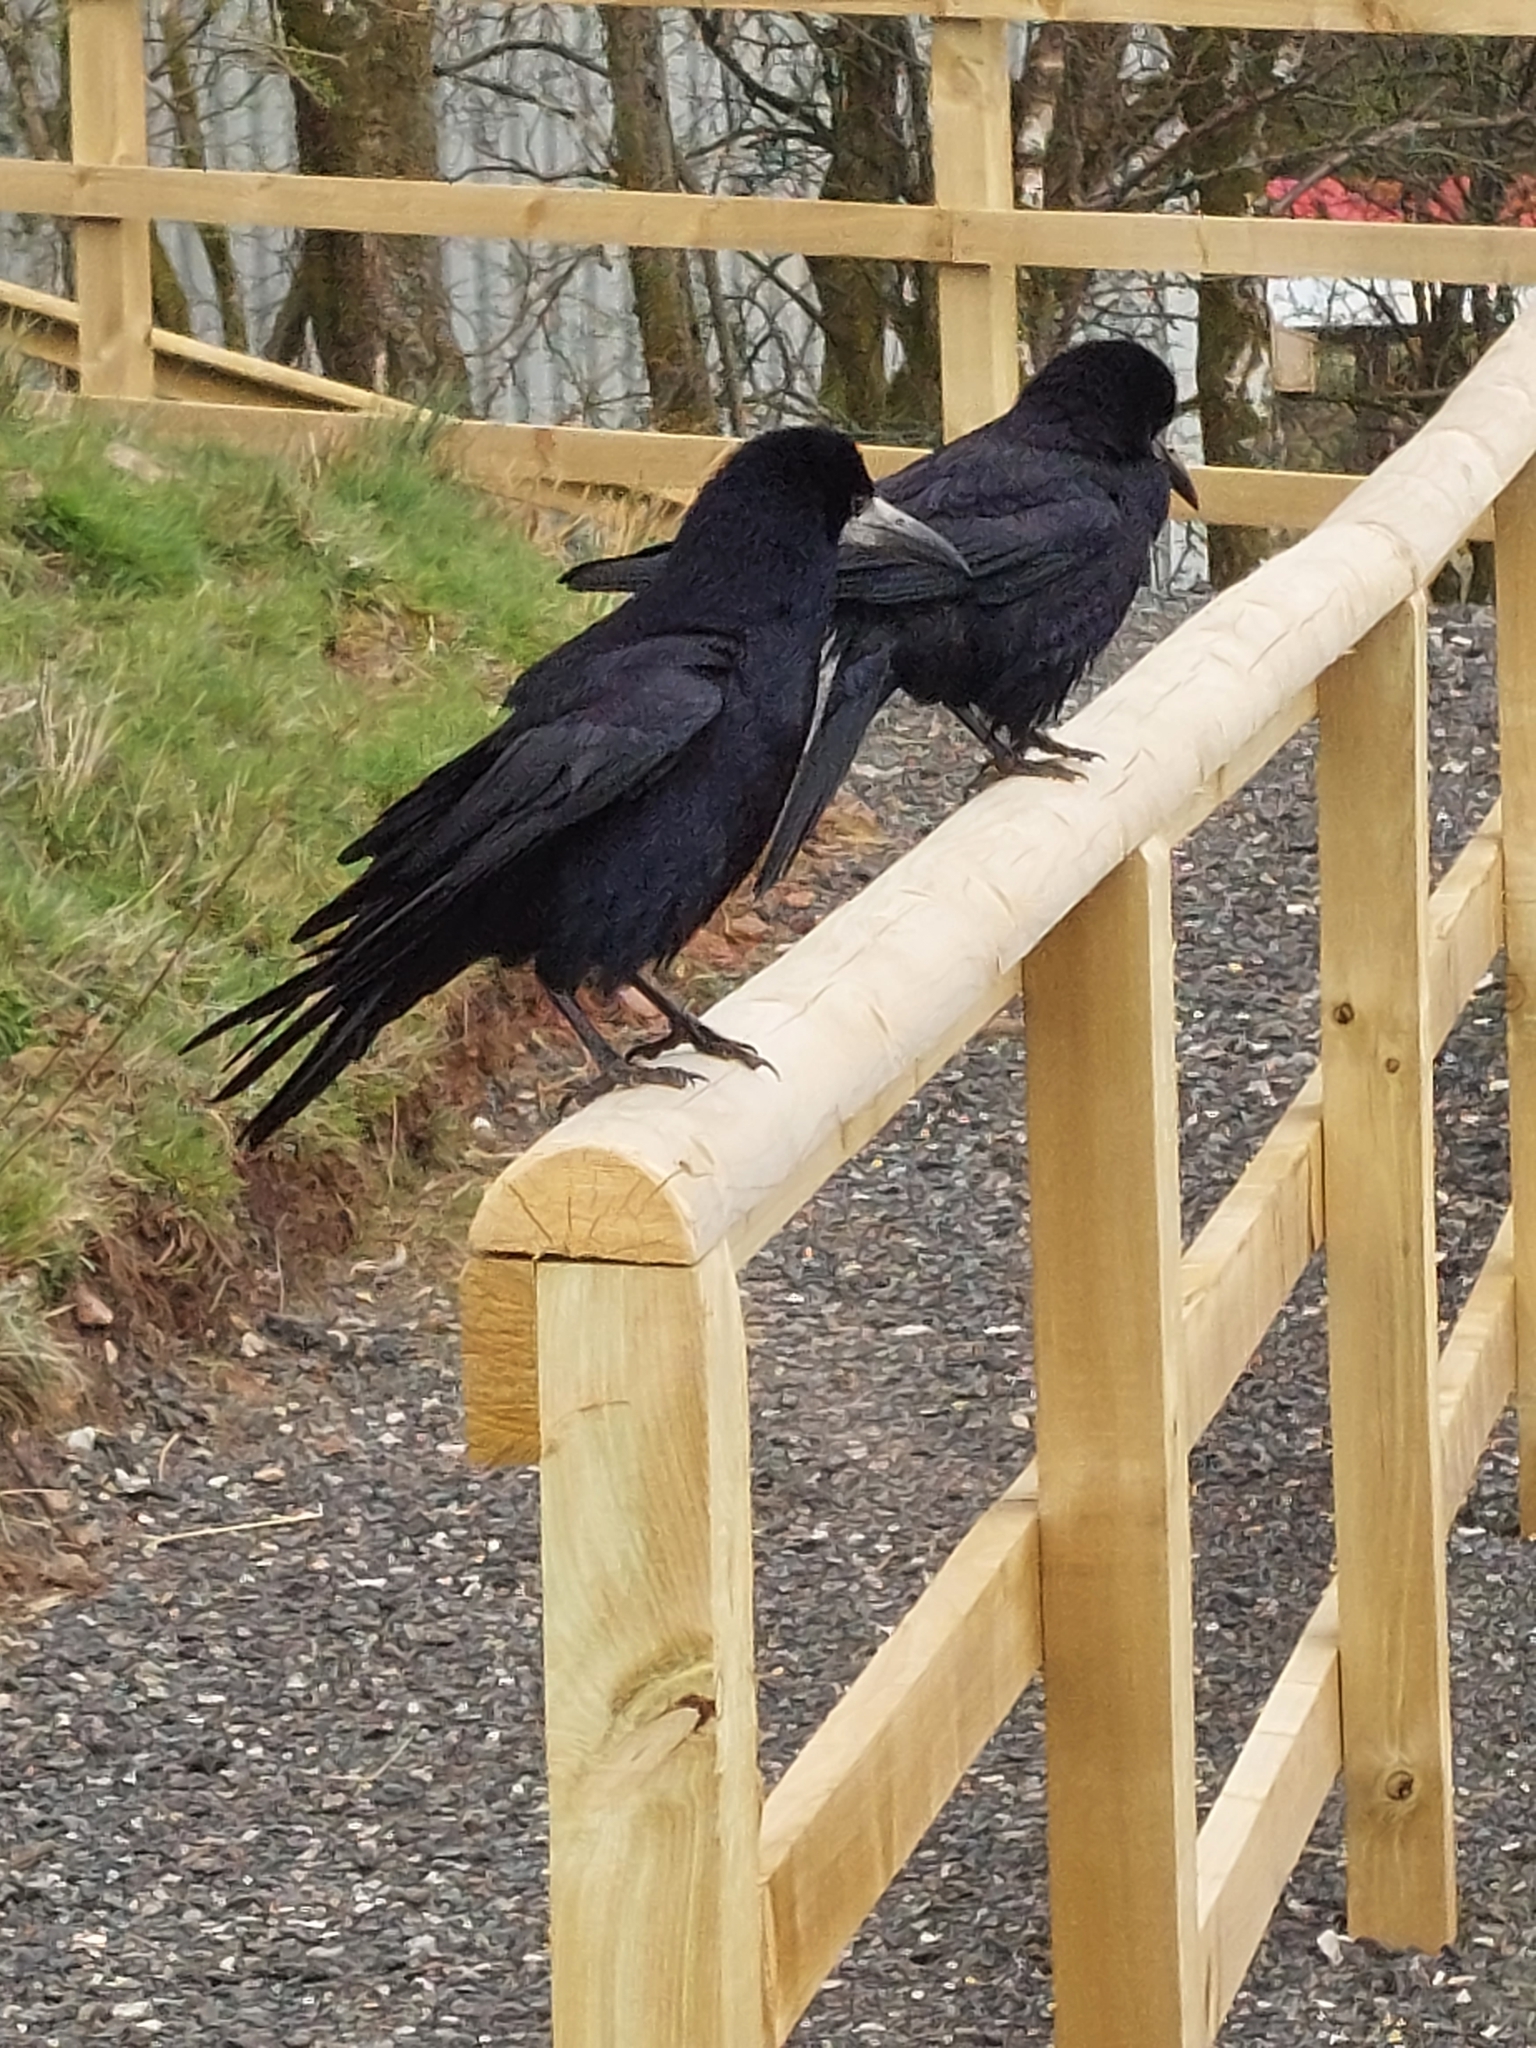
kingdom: Animalia
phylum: Chordata
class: Aves
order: Passeriformes
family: Corvidae
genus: Corvus
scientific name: Corvus frugilegus
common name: Rook
